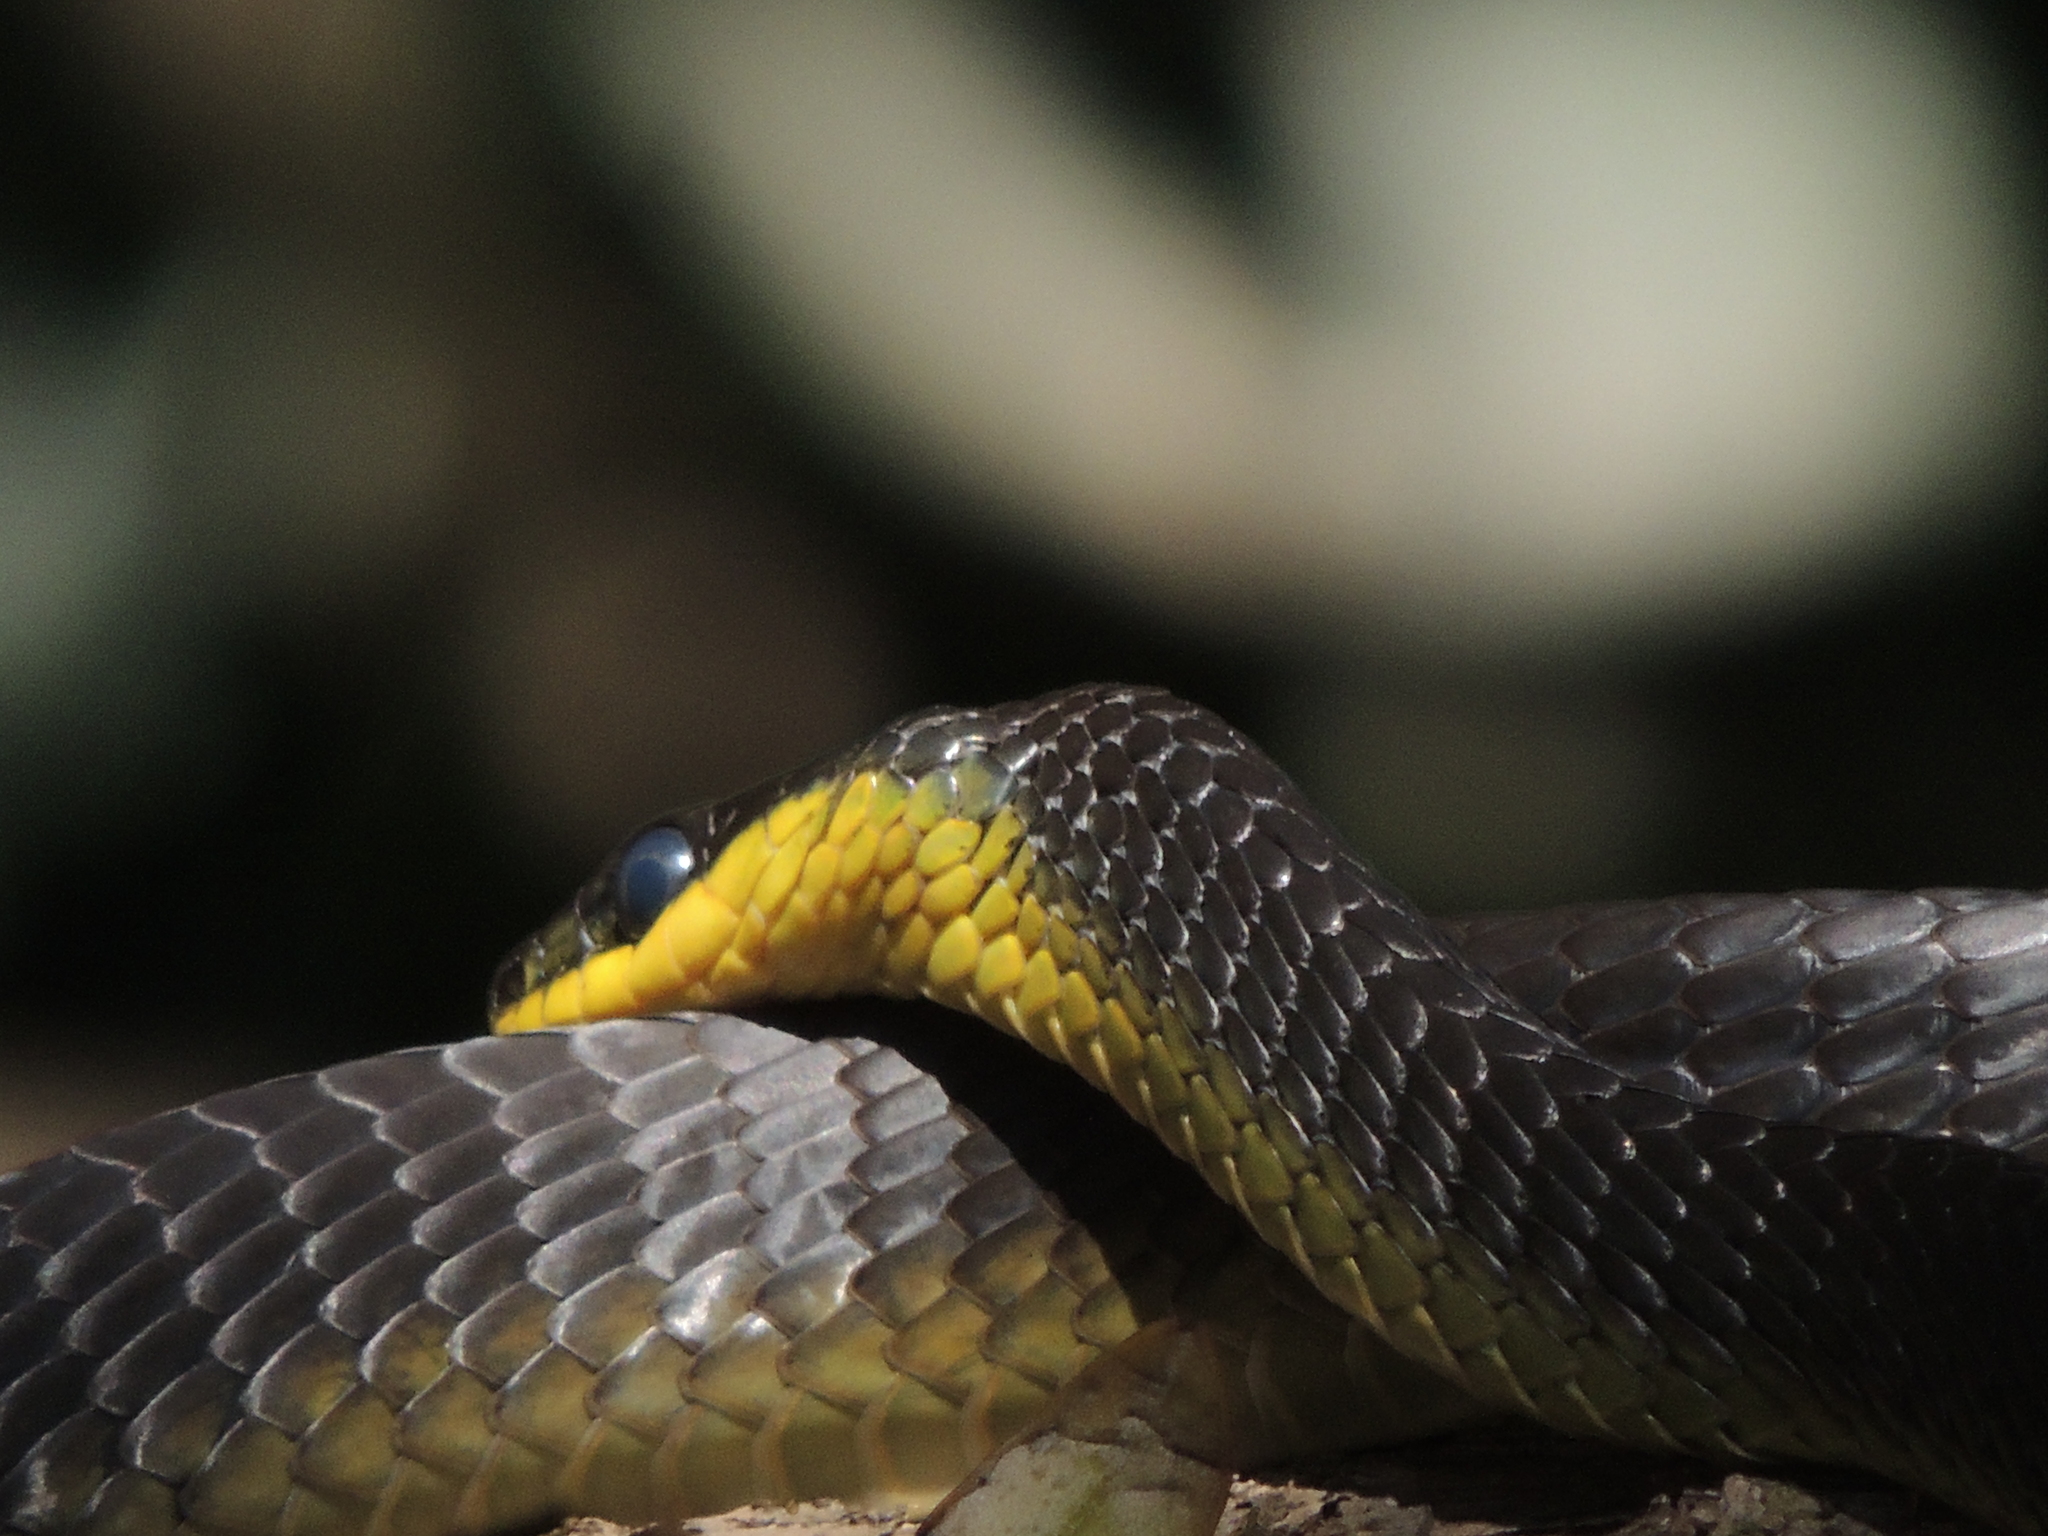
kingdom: Animalia
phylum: Chordata
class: Squamata
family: Colubridae
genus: Dendrelaphis
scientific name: Dendrelaphis punctulatus
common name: Common tree snake
